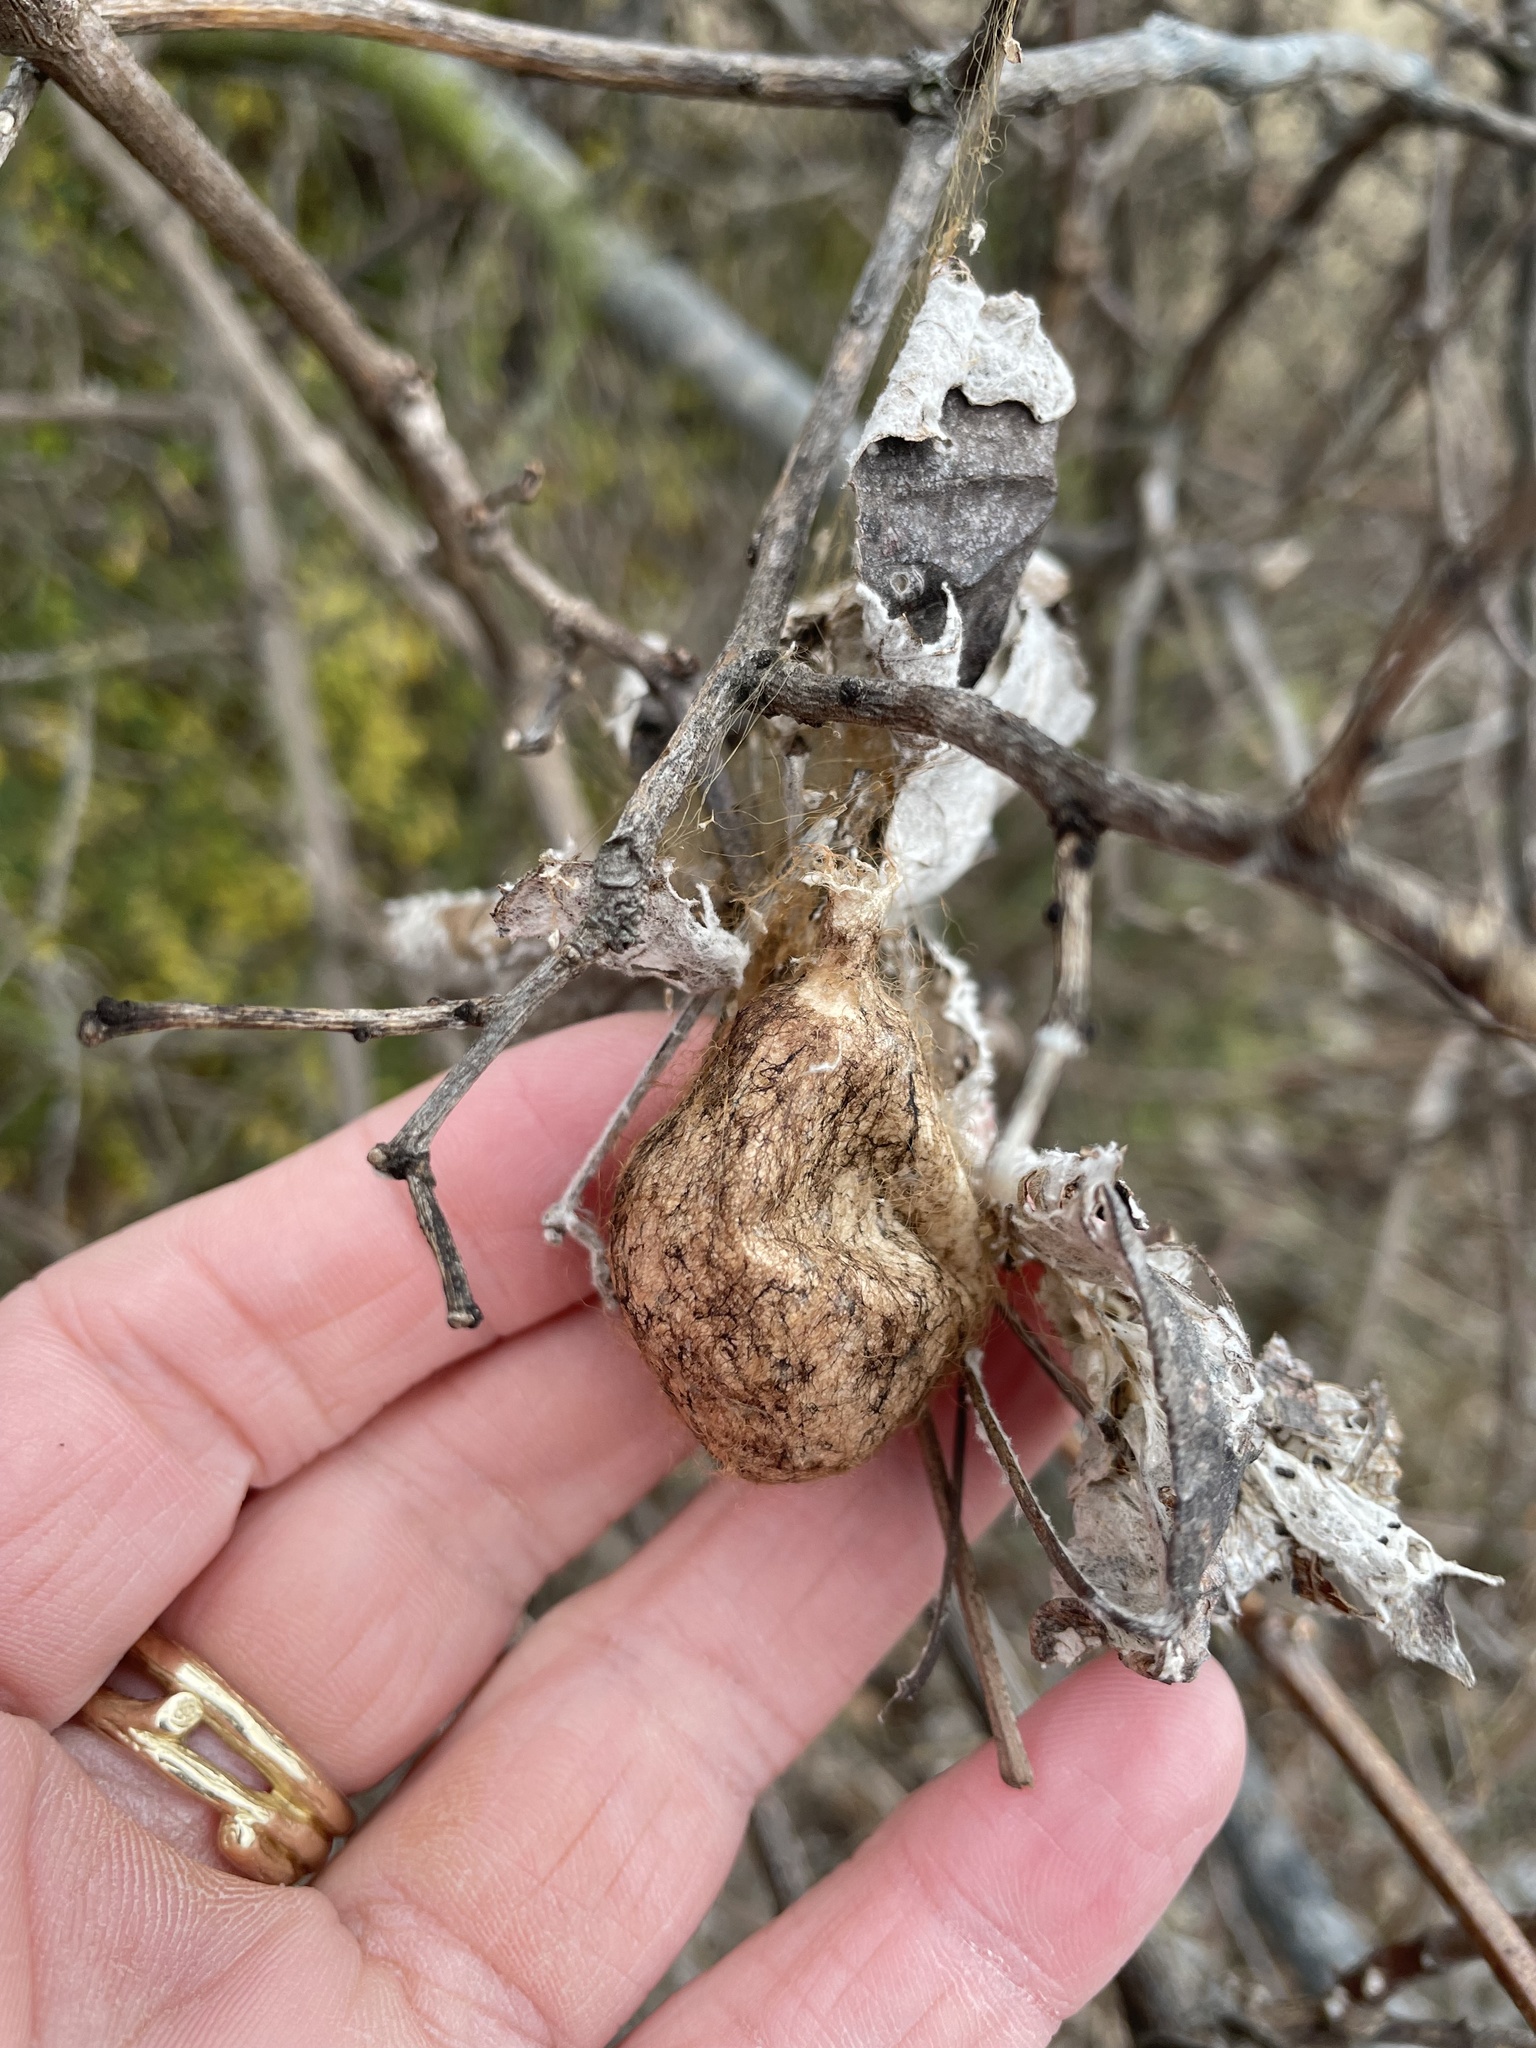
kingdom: Animalia
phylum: Arthropoda
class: Arachnida
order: Araneae
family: Araneidae
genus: Argiope
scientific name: Argiope aurantia
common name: Orb weavers
